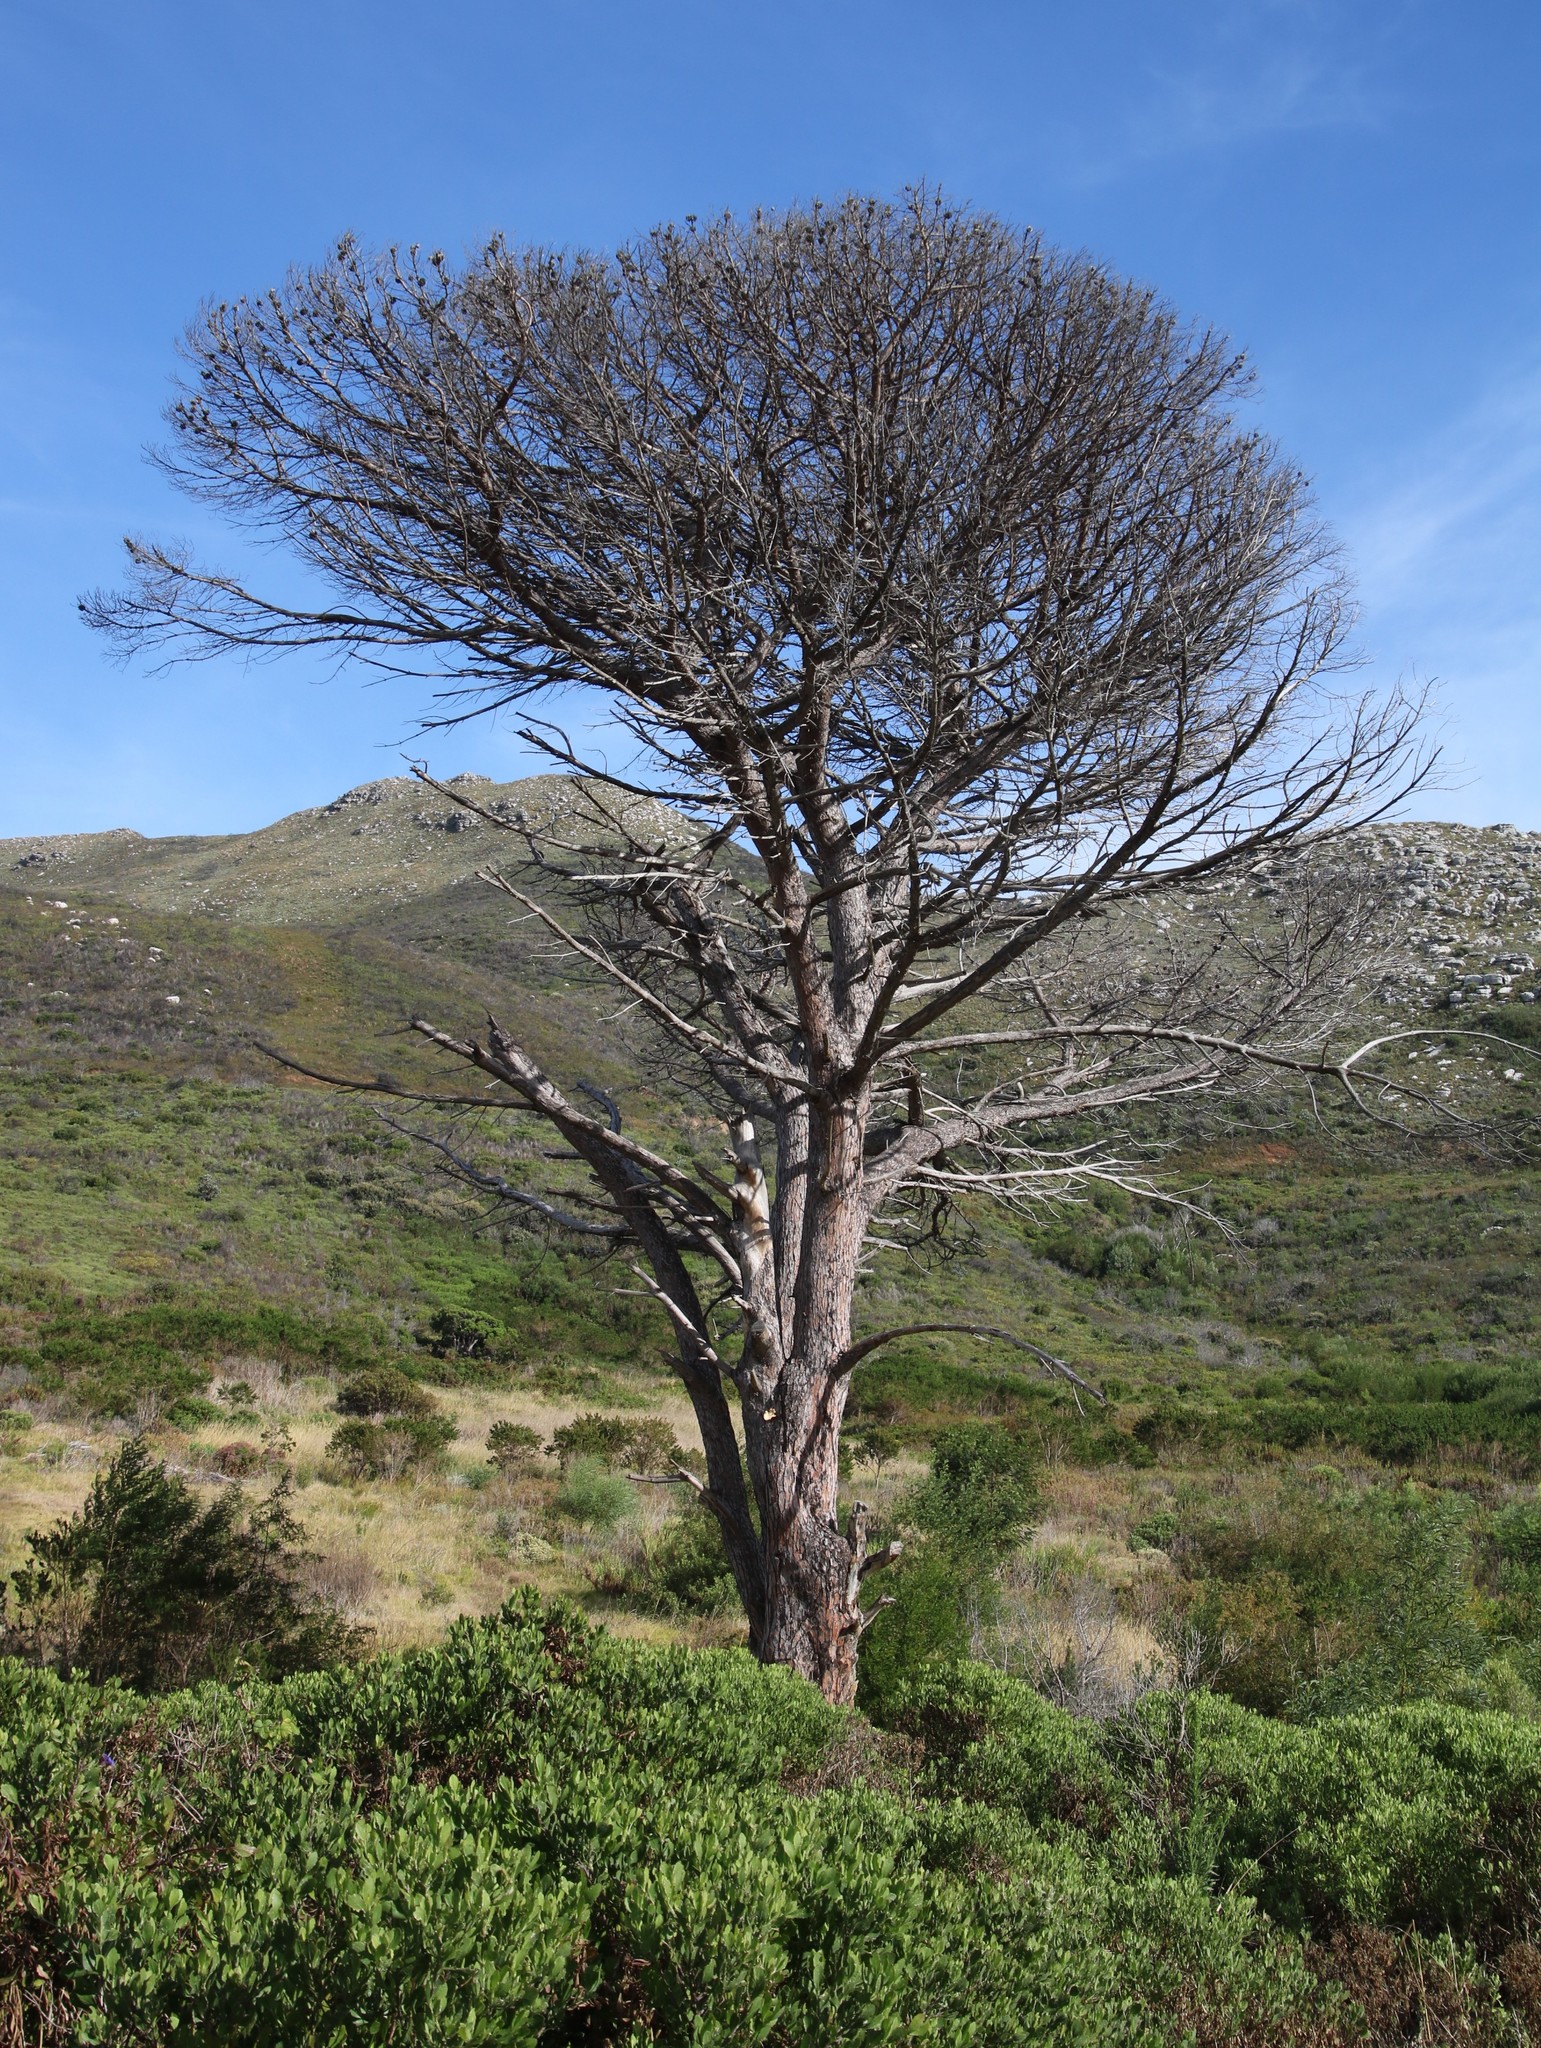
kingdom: Plantae
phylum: Tracheophyta
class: Pinopsida
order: Pinales
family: Pinaceae
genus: Pinus
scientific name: Pinus pinea
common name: Italian stone pine
